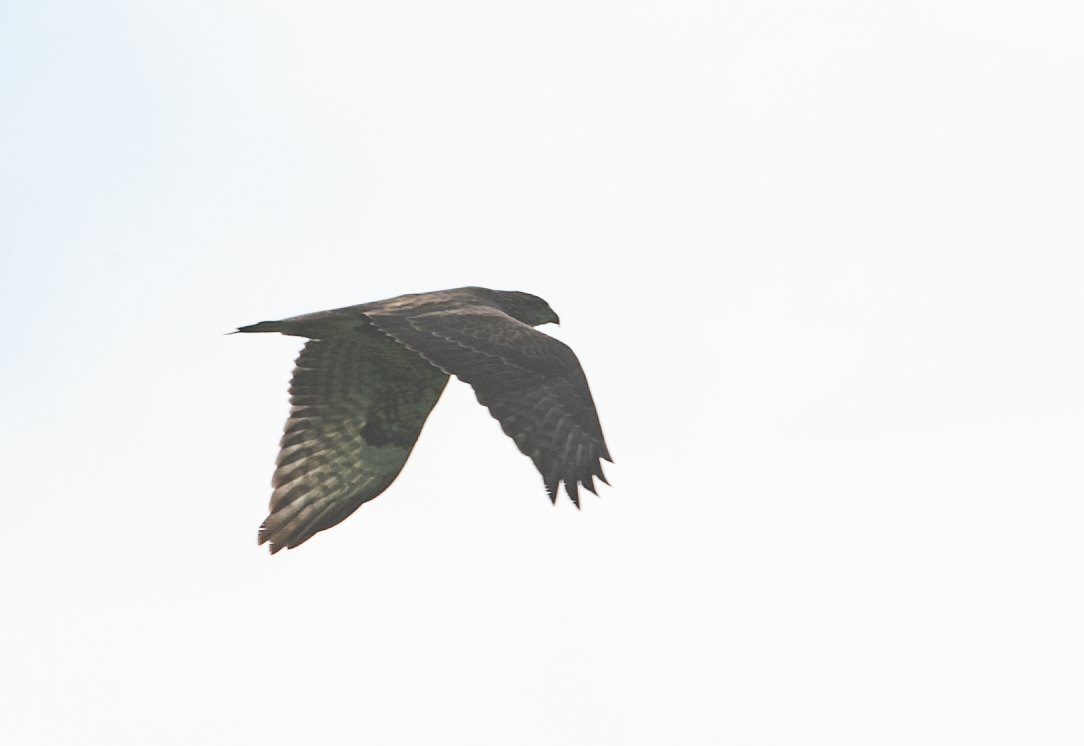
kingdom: Animalia
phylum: Chordata
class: Aves
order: Accipitriformes
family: Accipitridae
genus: Buteo
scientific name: Buteo buteo
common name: Common buzzard
